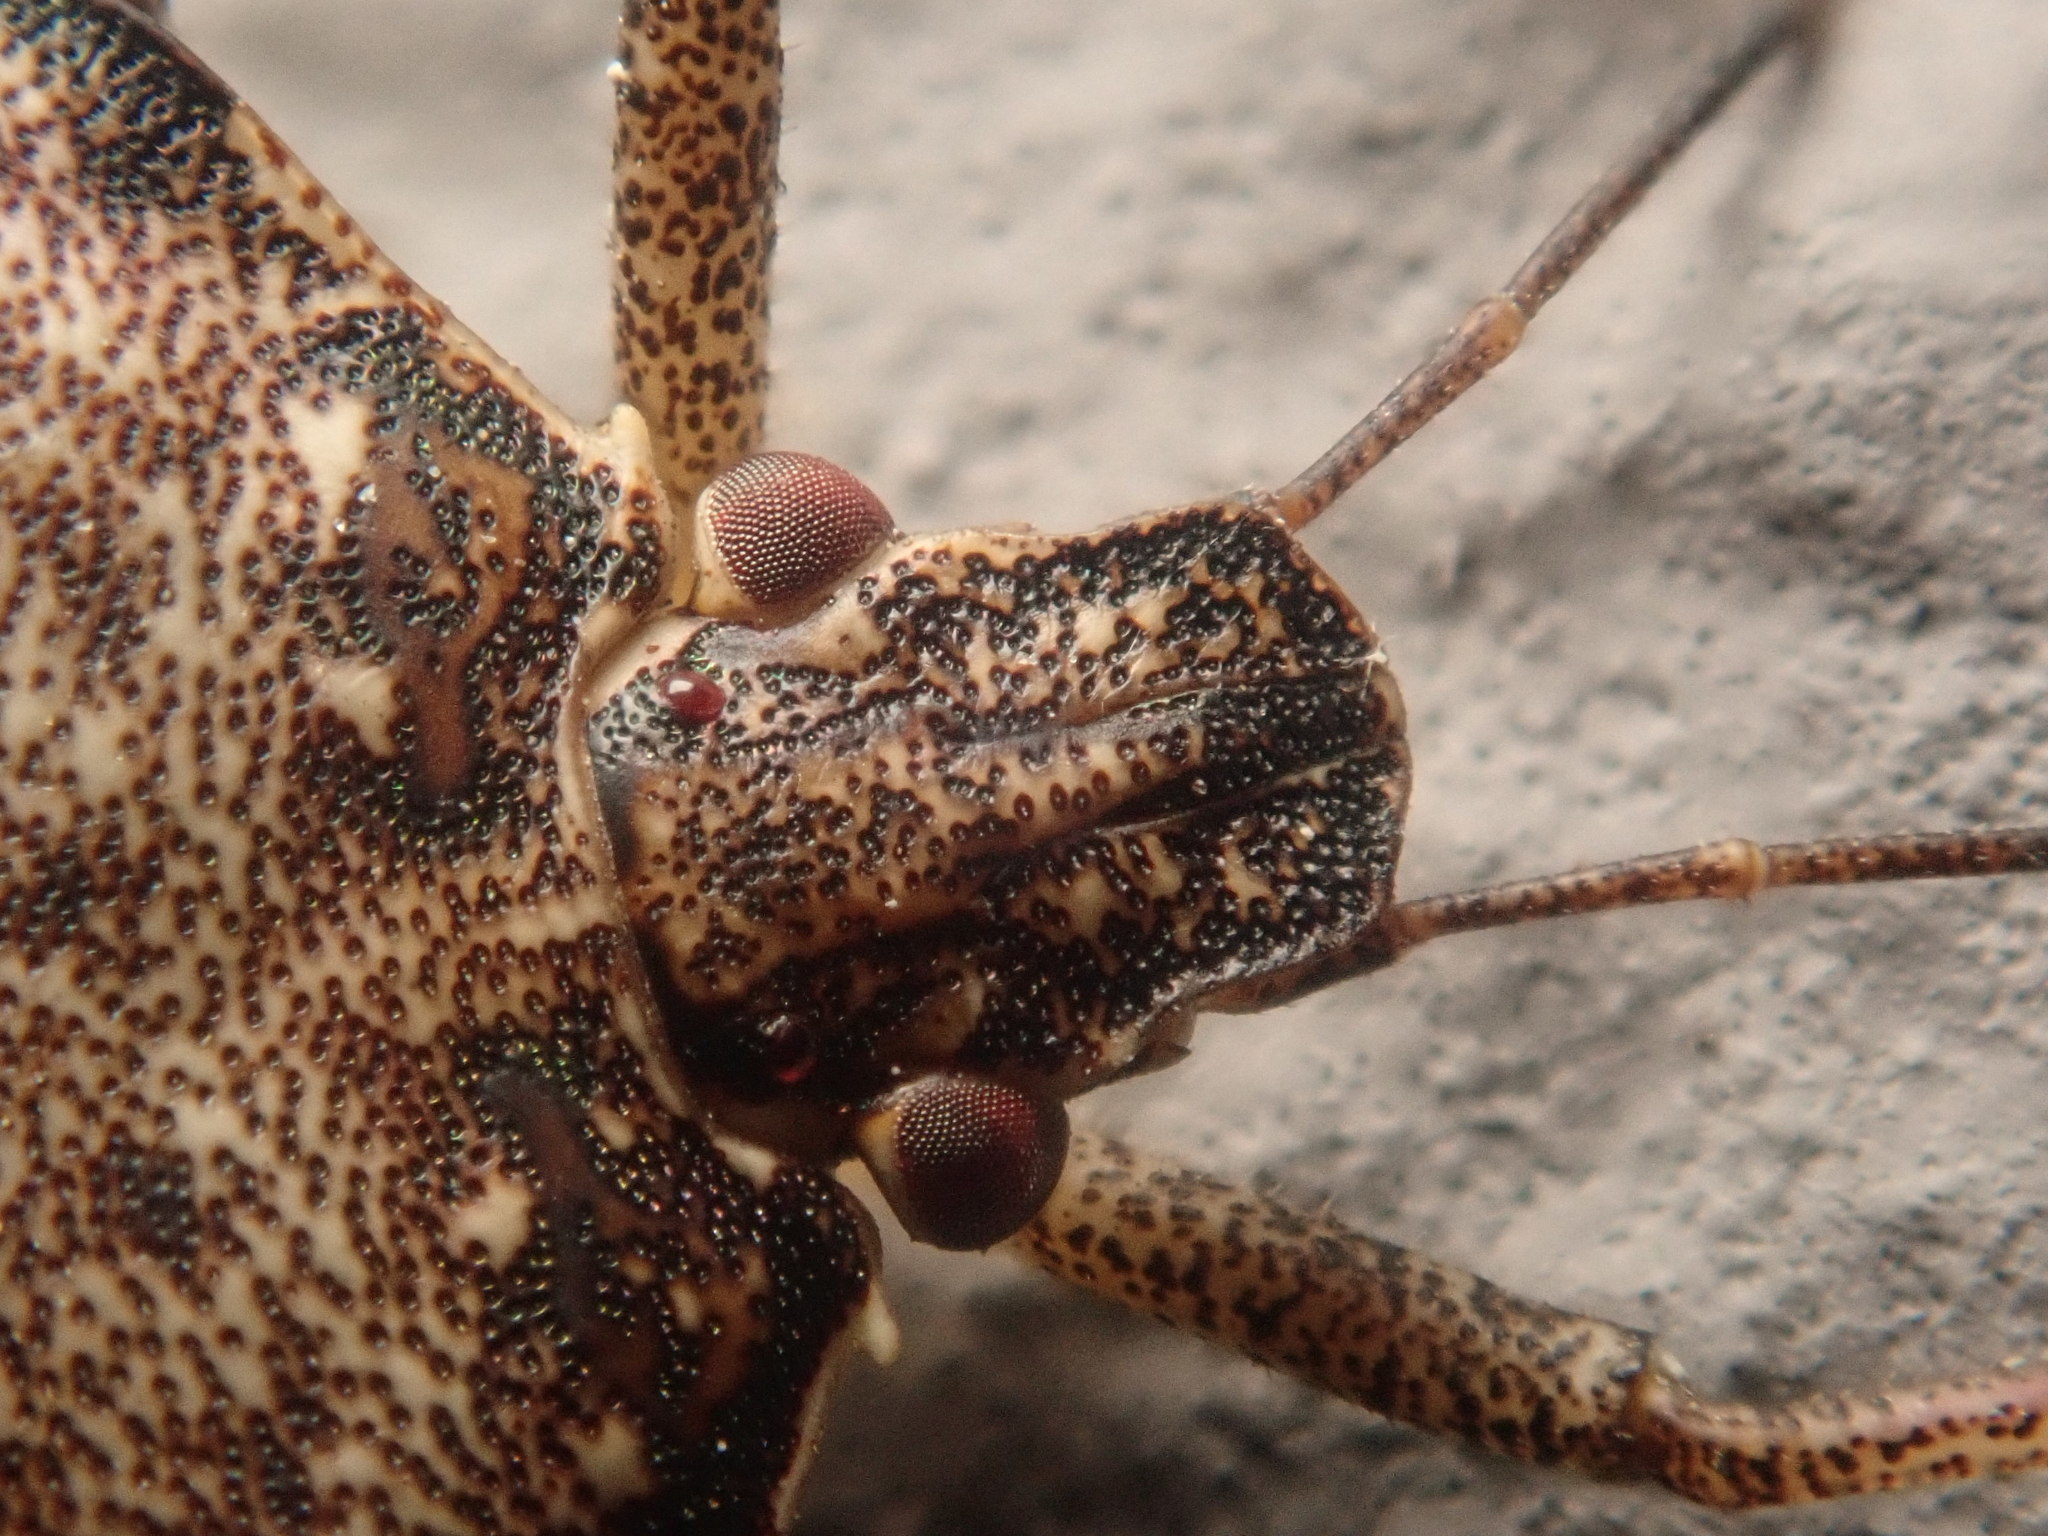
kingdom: Animalia
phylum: Arthropoda
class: Insecta
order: Hemiptera
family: Pentatomidae
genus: Halyomorpha
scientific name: Halyomorpha halys
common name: Brown marmorated stink bug
